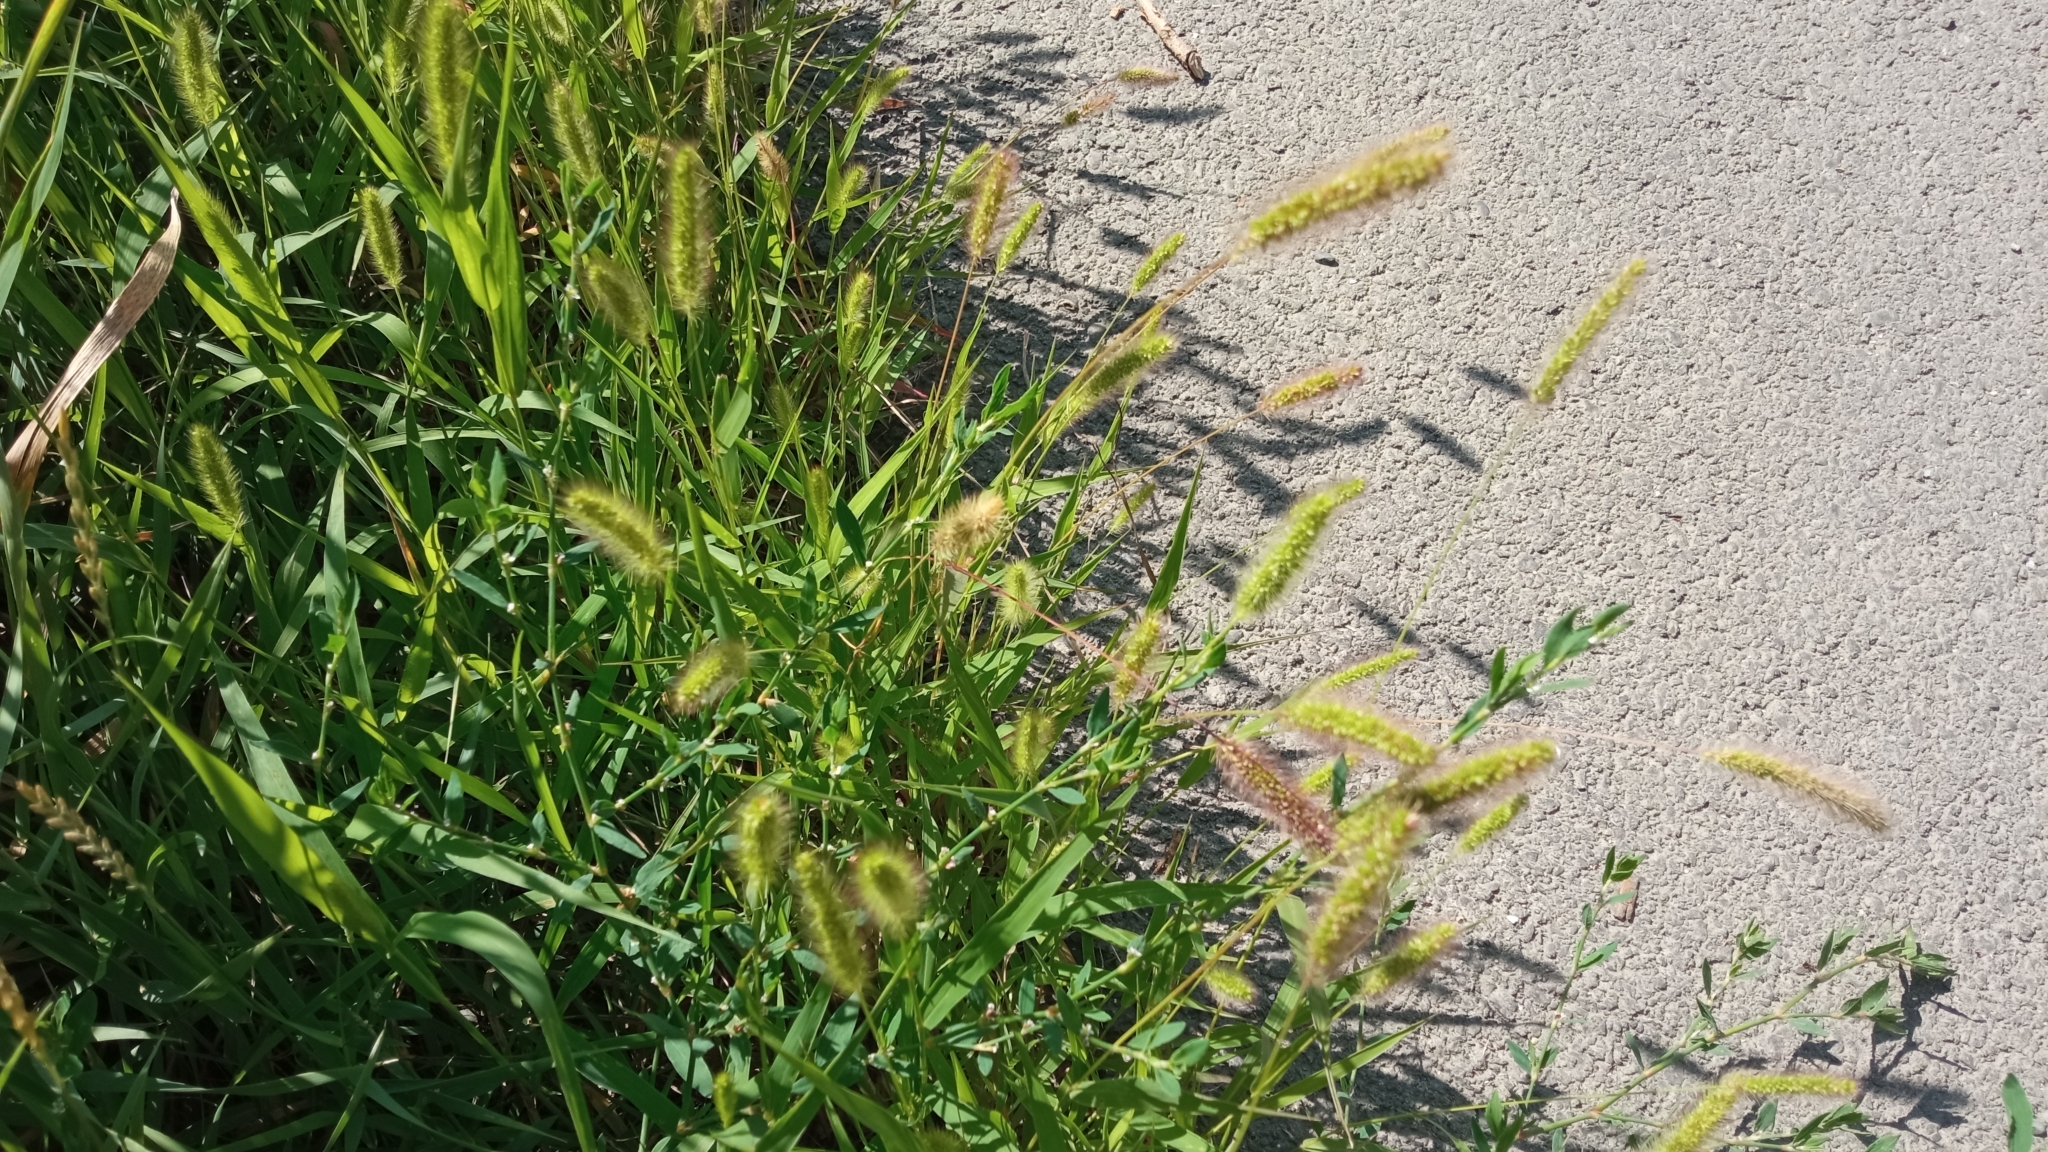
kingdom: Plantae
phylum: Tracheophyta
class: Liliopsida
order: Poales
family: Poaceae
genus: Setaria
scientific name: Setaria viridis
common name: Green bristlegrass
